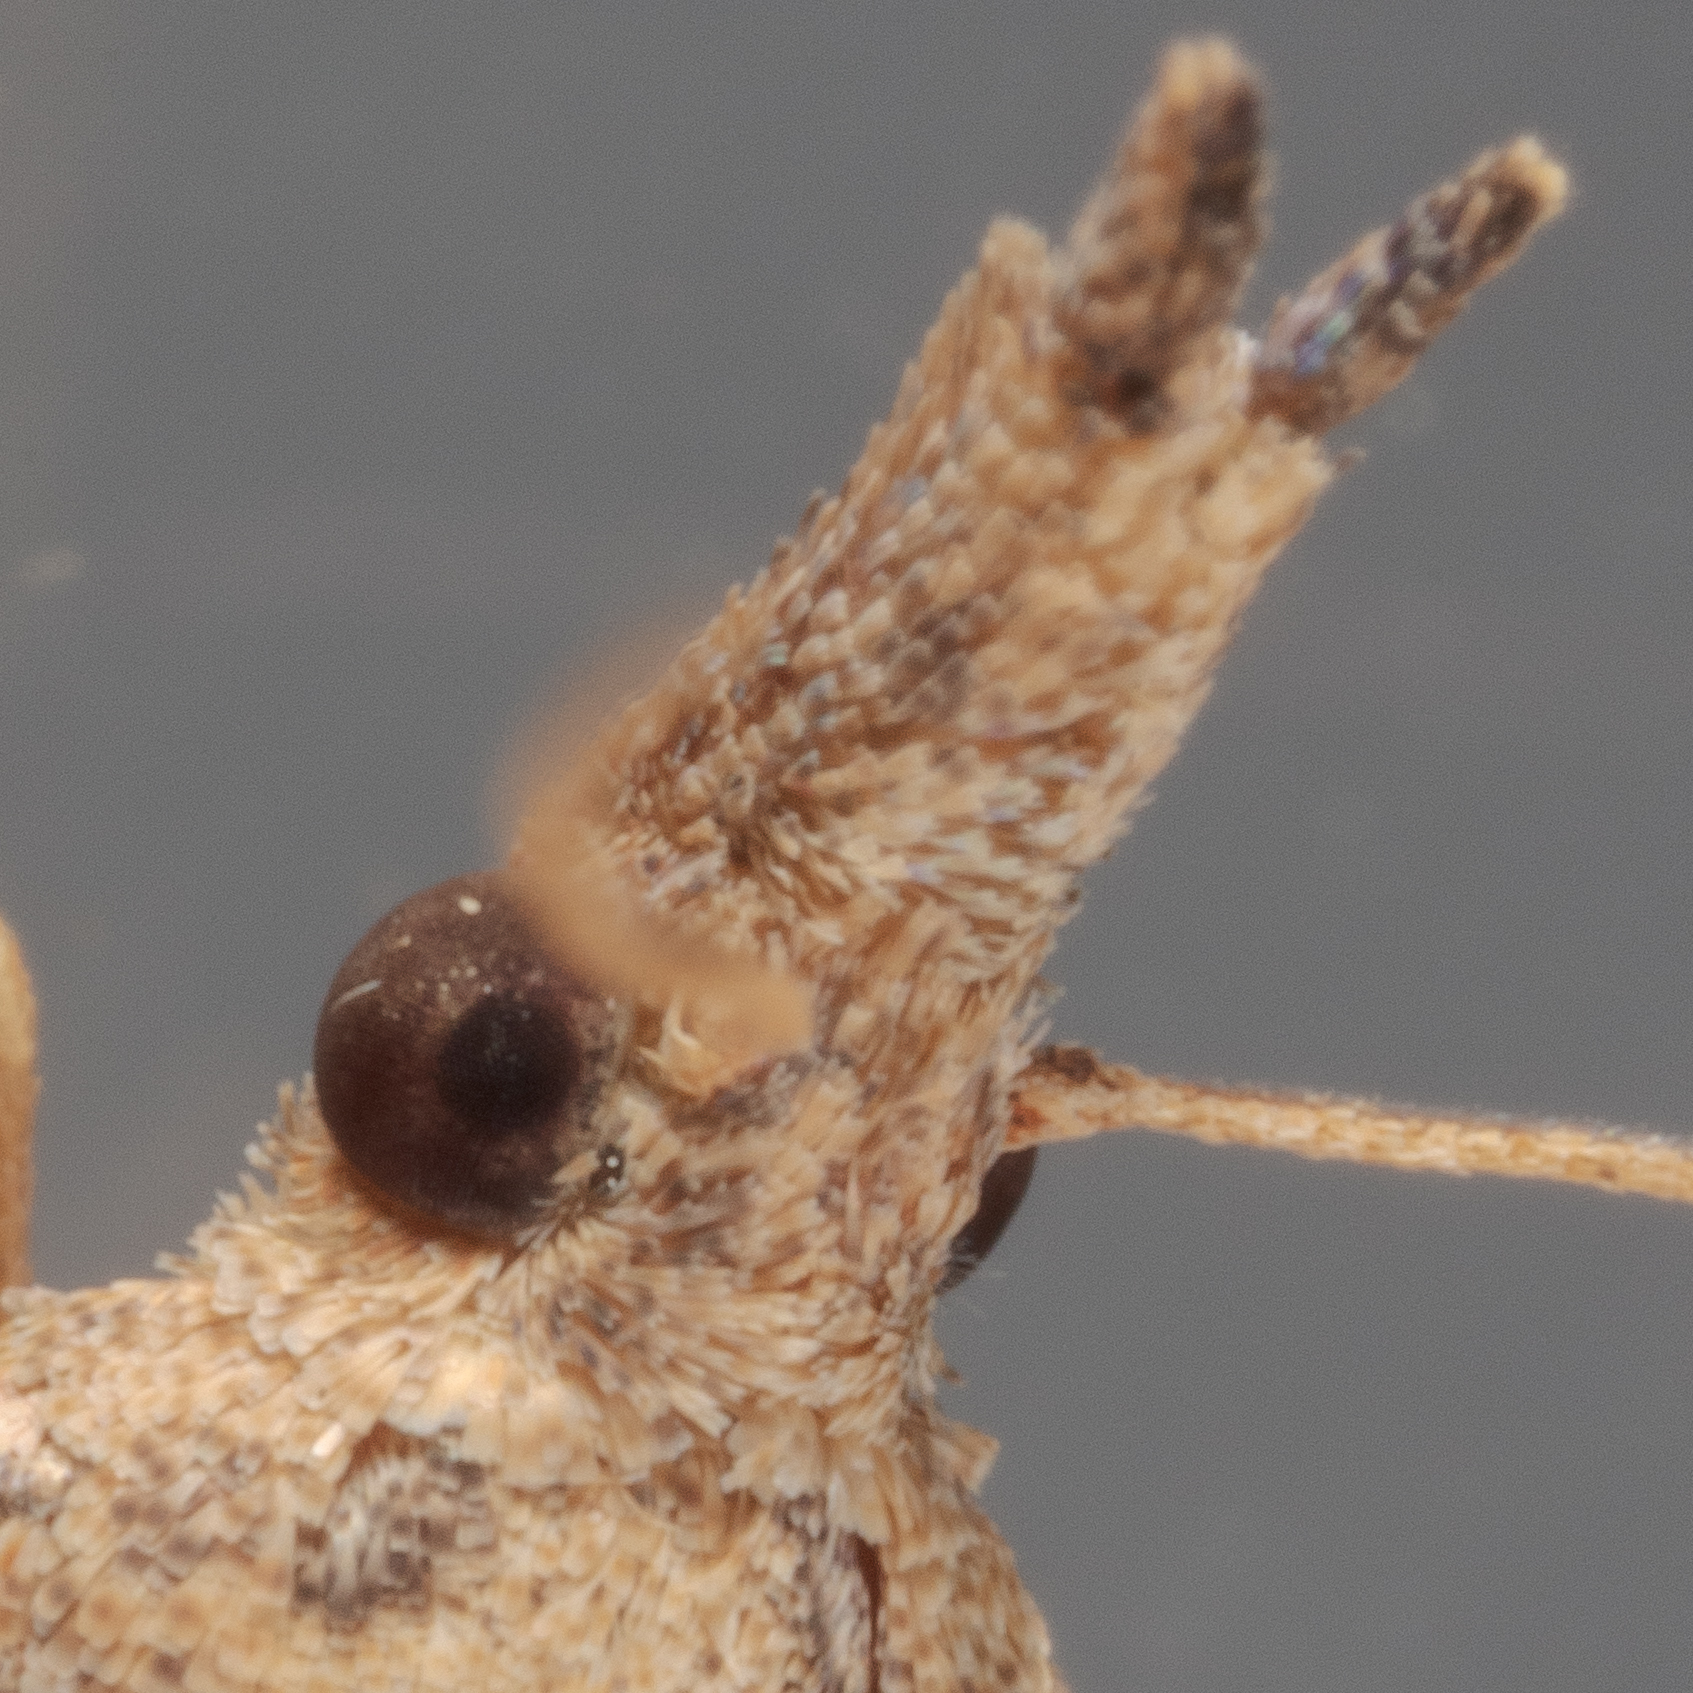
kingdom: Animalia
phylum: Arthropoda
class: Insecta
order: Lepidoptera
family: Tortricidae
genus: Platynota
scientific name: Platynota rostrana
